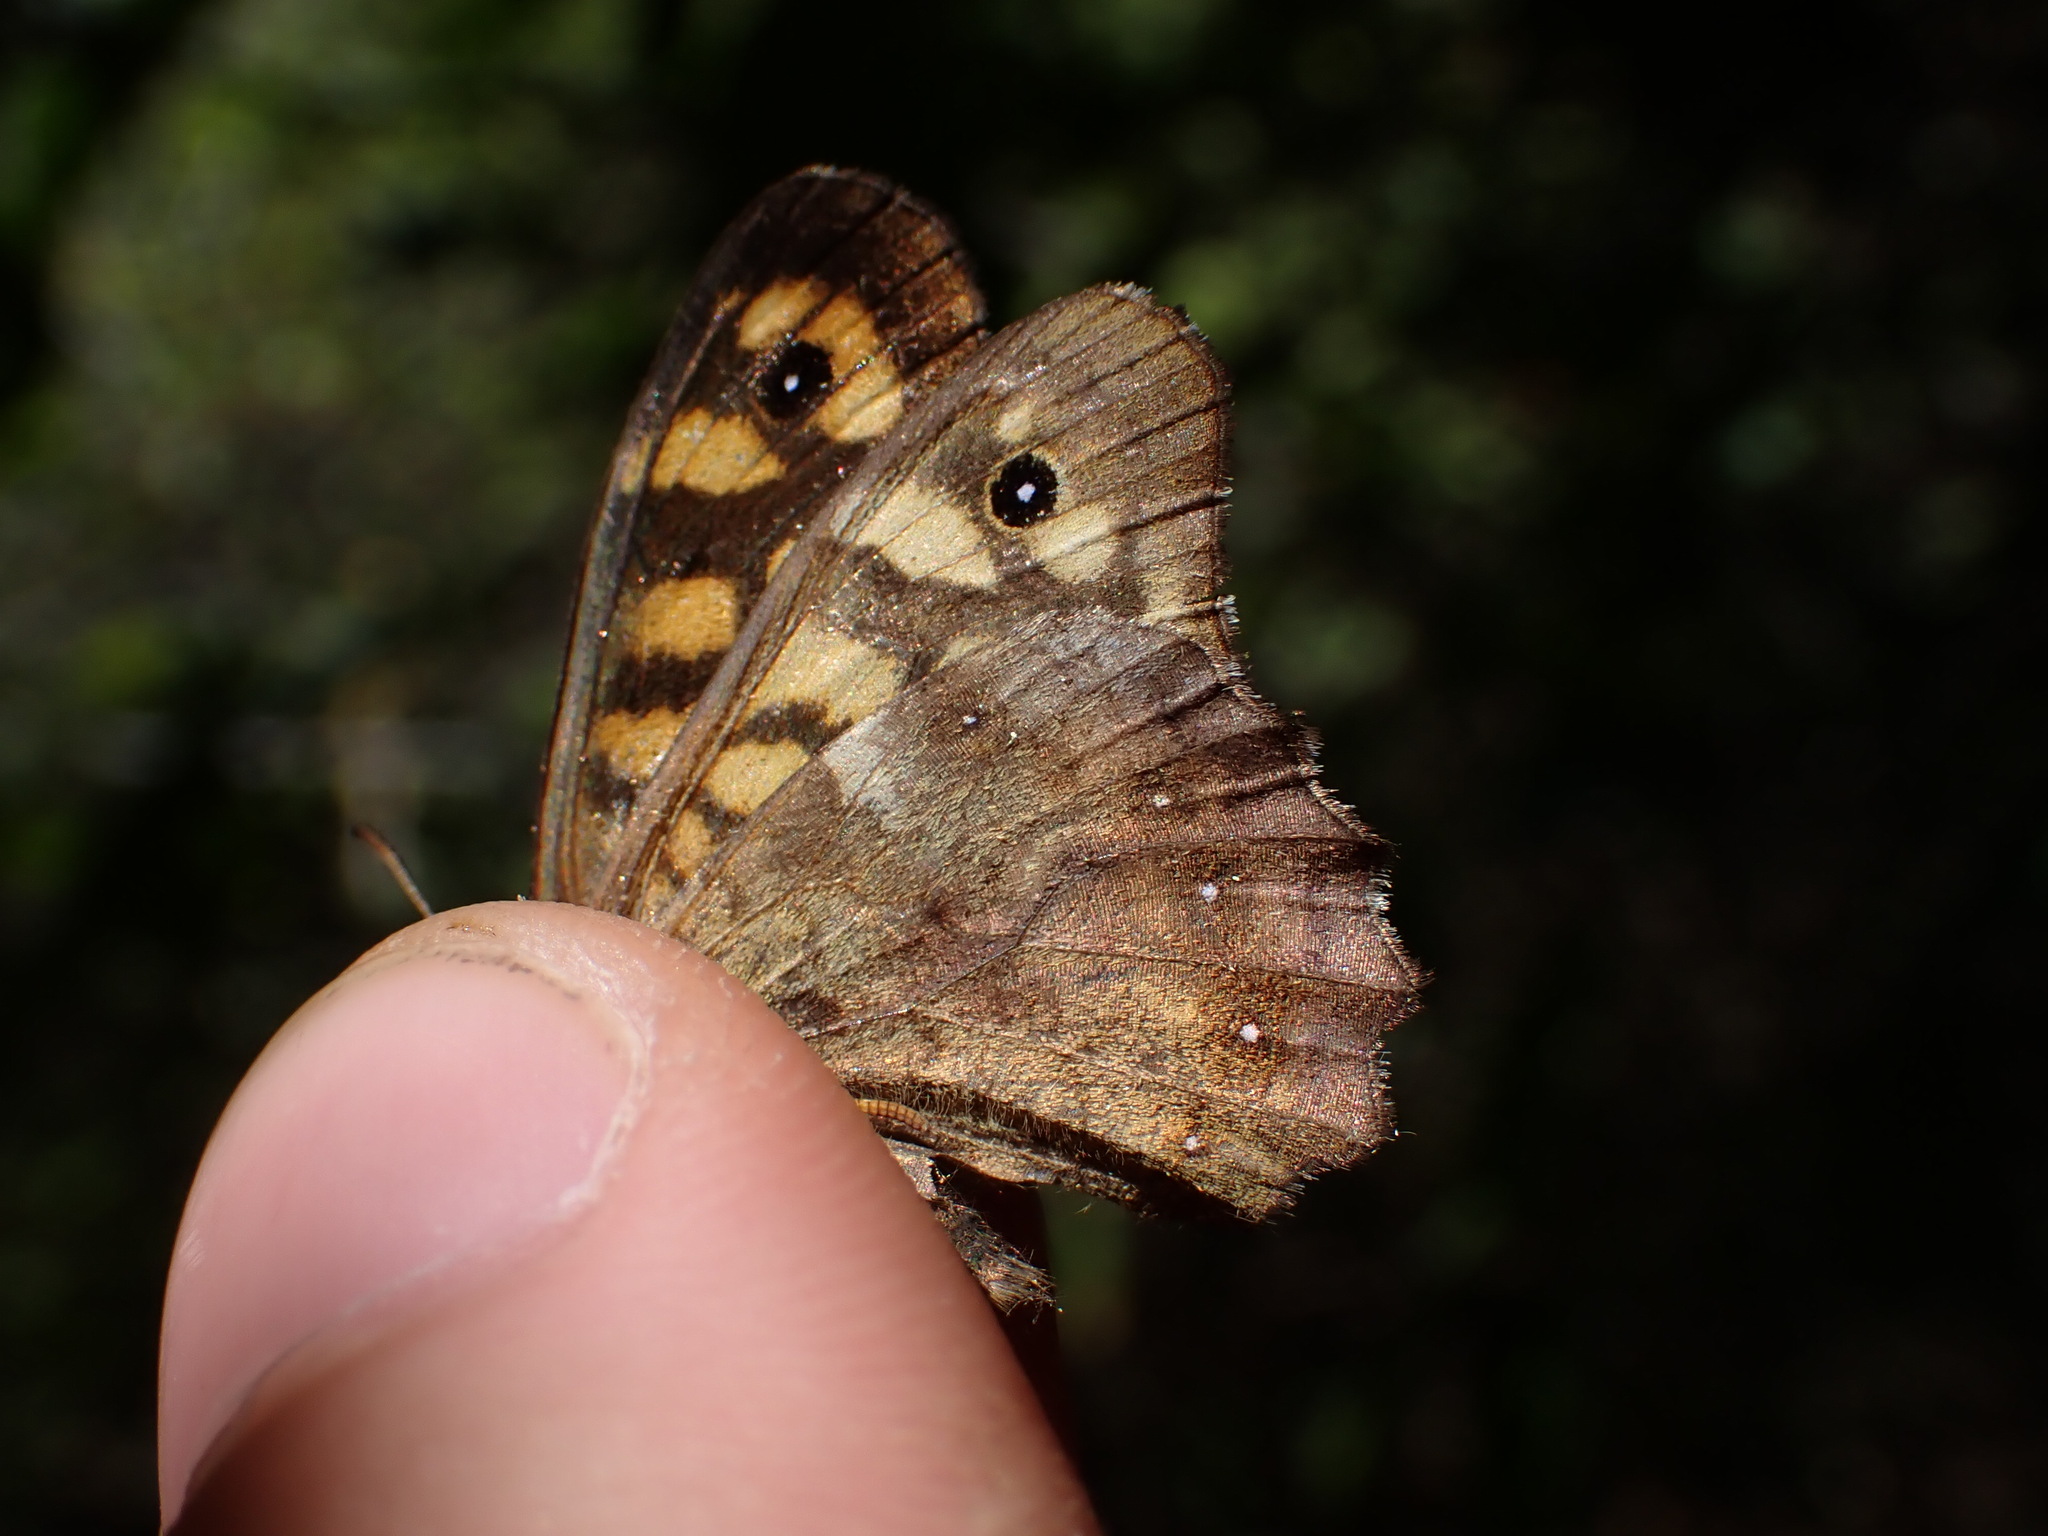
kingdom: Animalia
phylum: Arthropoda
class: Insecta
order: Lepidoptera
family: Nymphalidae
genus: Pararge
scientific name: Pararge aegeria
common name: Speckled wood
